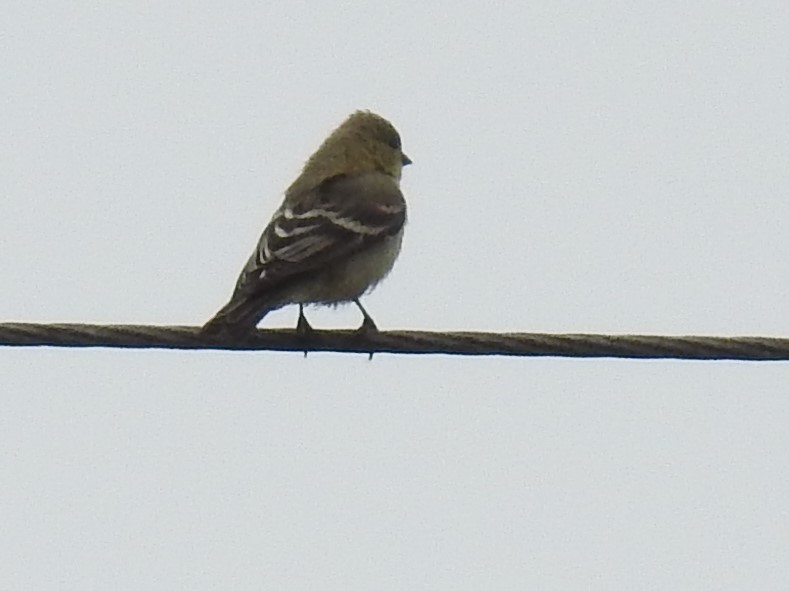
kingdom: Animalia
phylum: Chordata
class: Aves
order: Passeriformes
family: Fringillidae
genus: Spinus
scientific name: Spinus psaltria
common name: Lesser goldfinch
